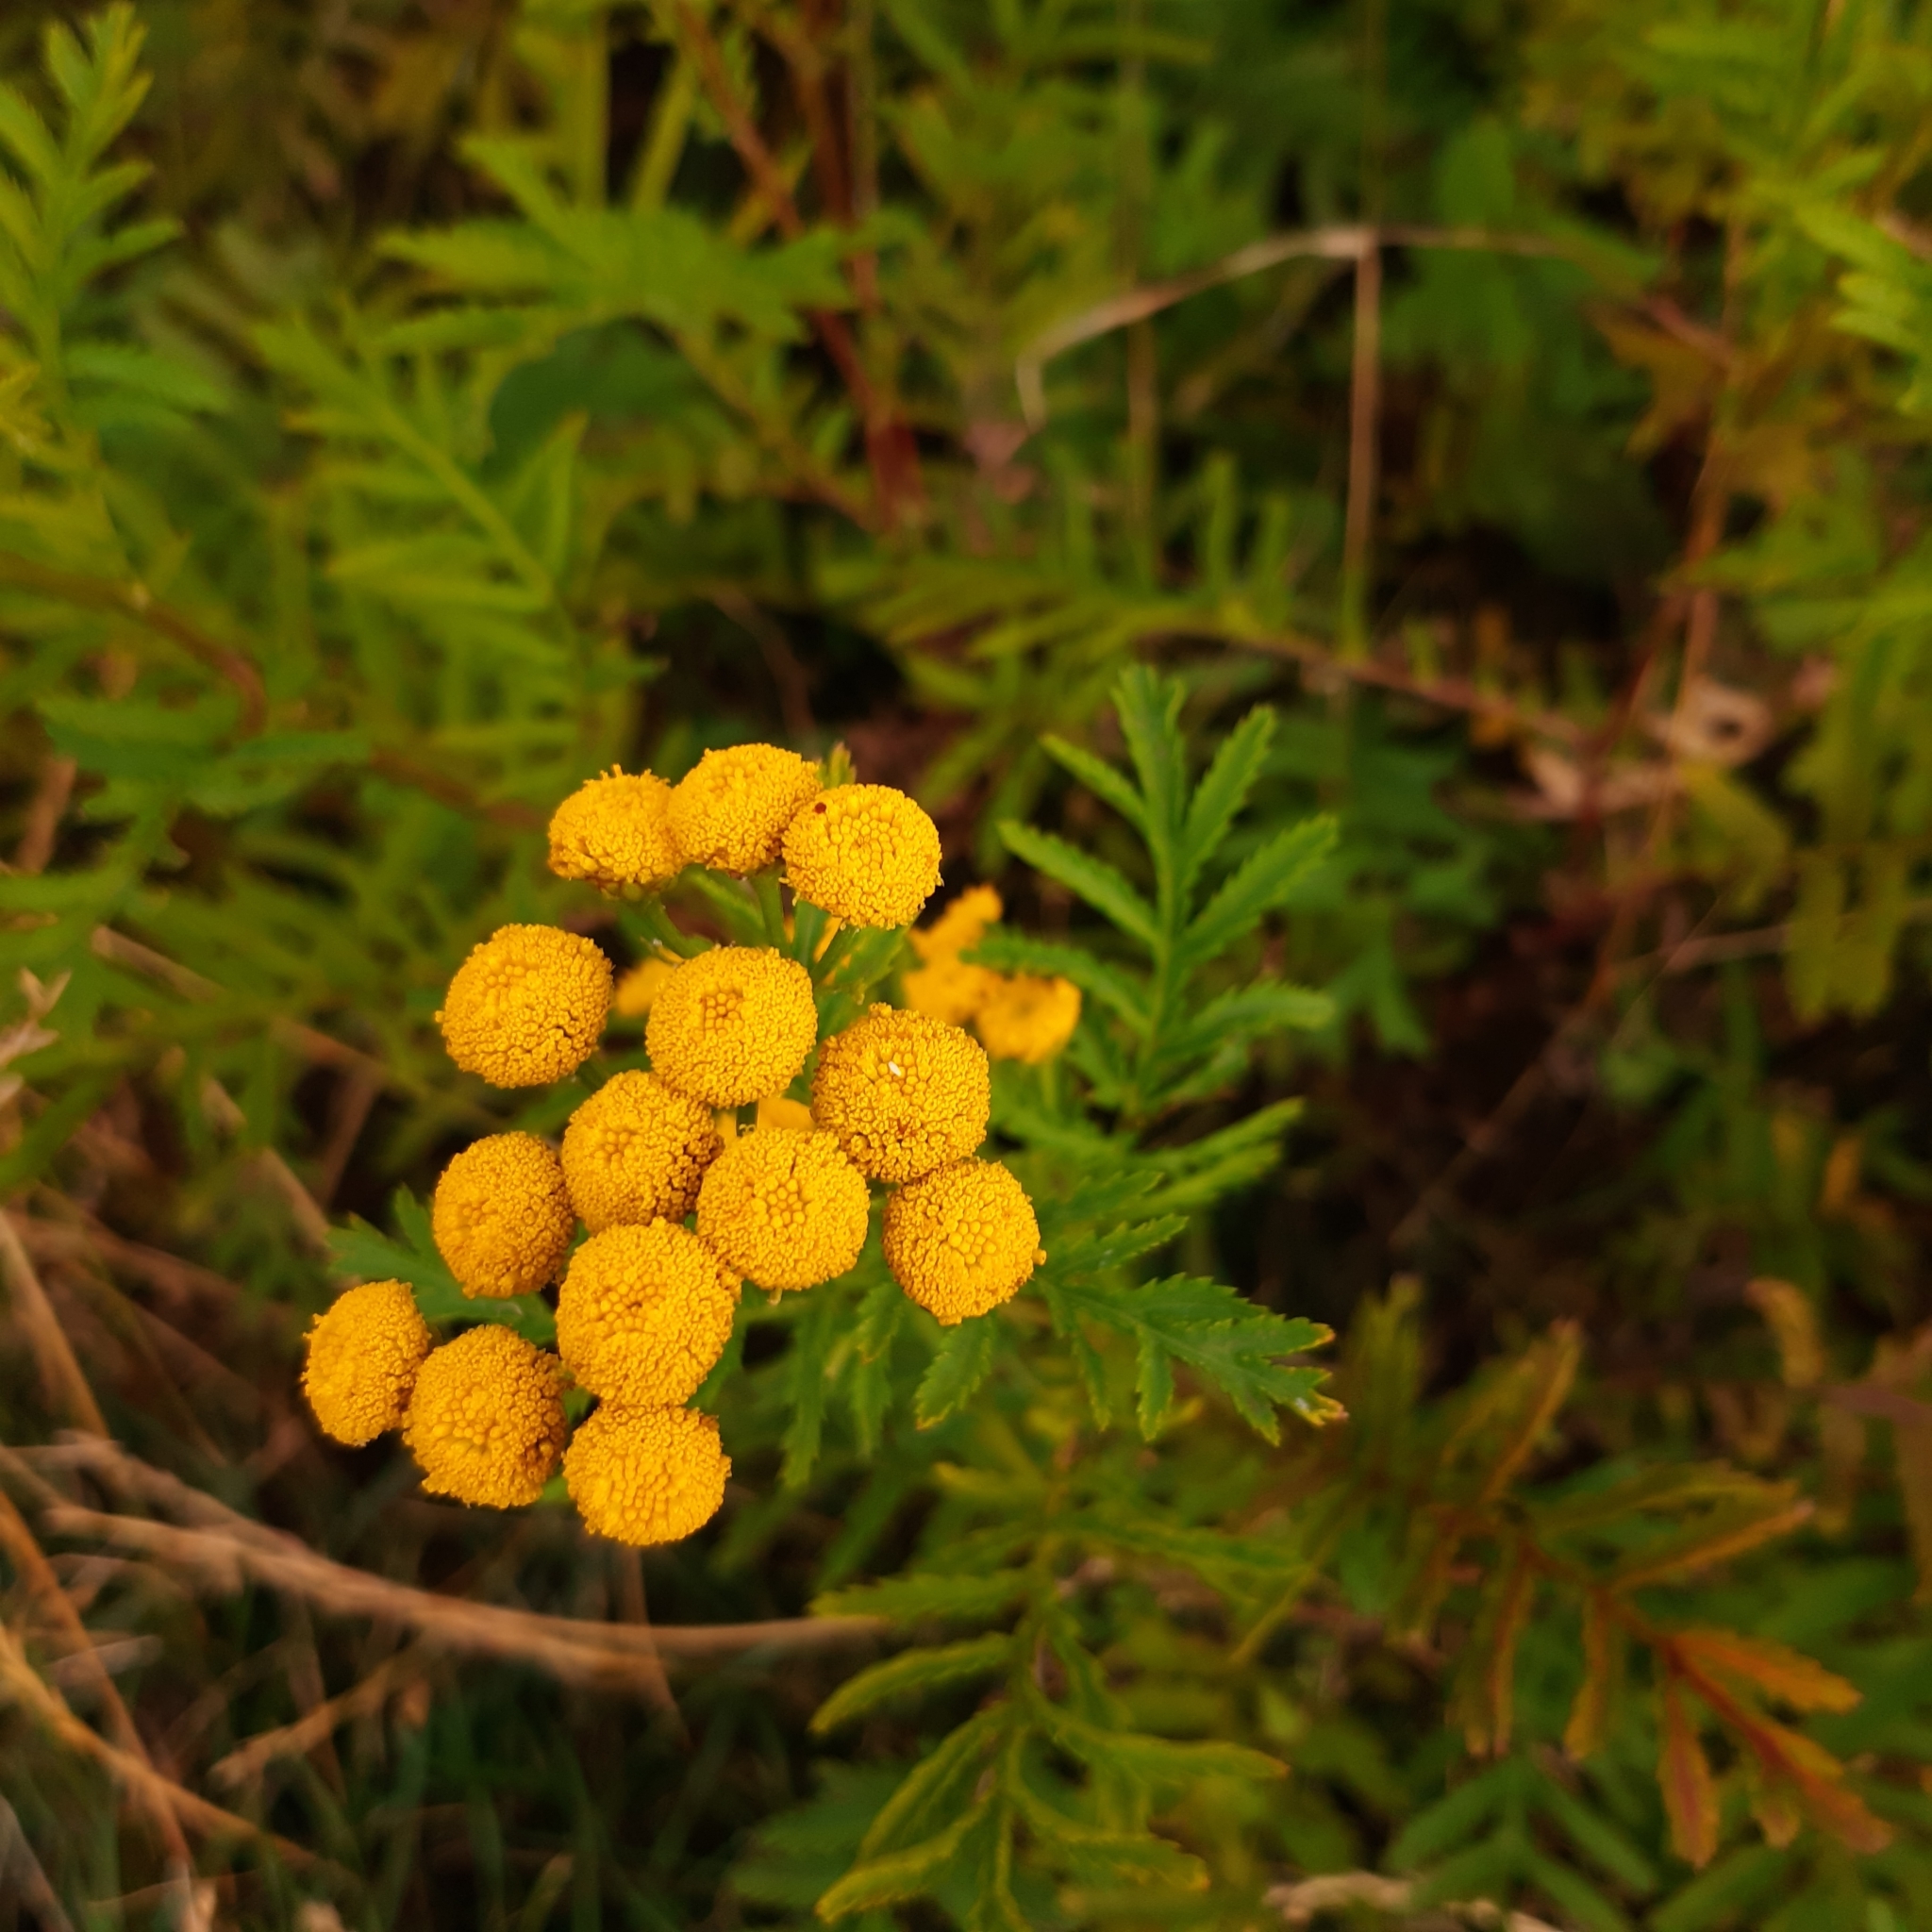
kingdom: Plantae
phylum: Tracheophyta
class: Magnoliopsida
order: Asterales
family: Asteraceae
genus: Tanacetum
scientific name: Tanacetum vulgare
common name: Common tansy
